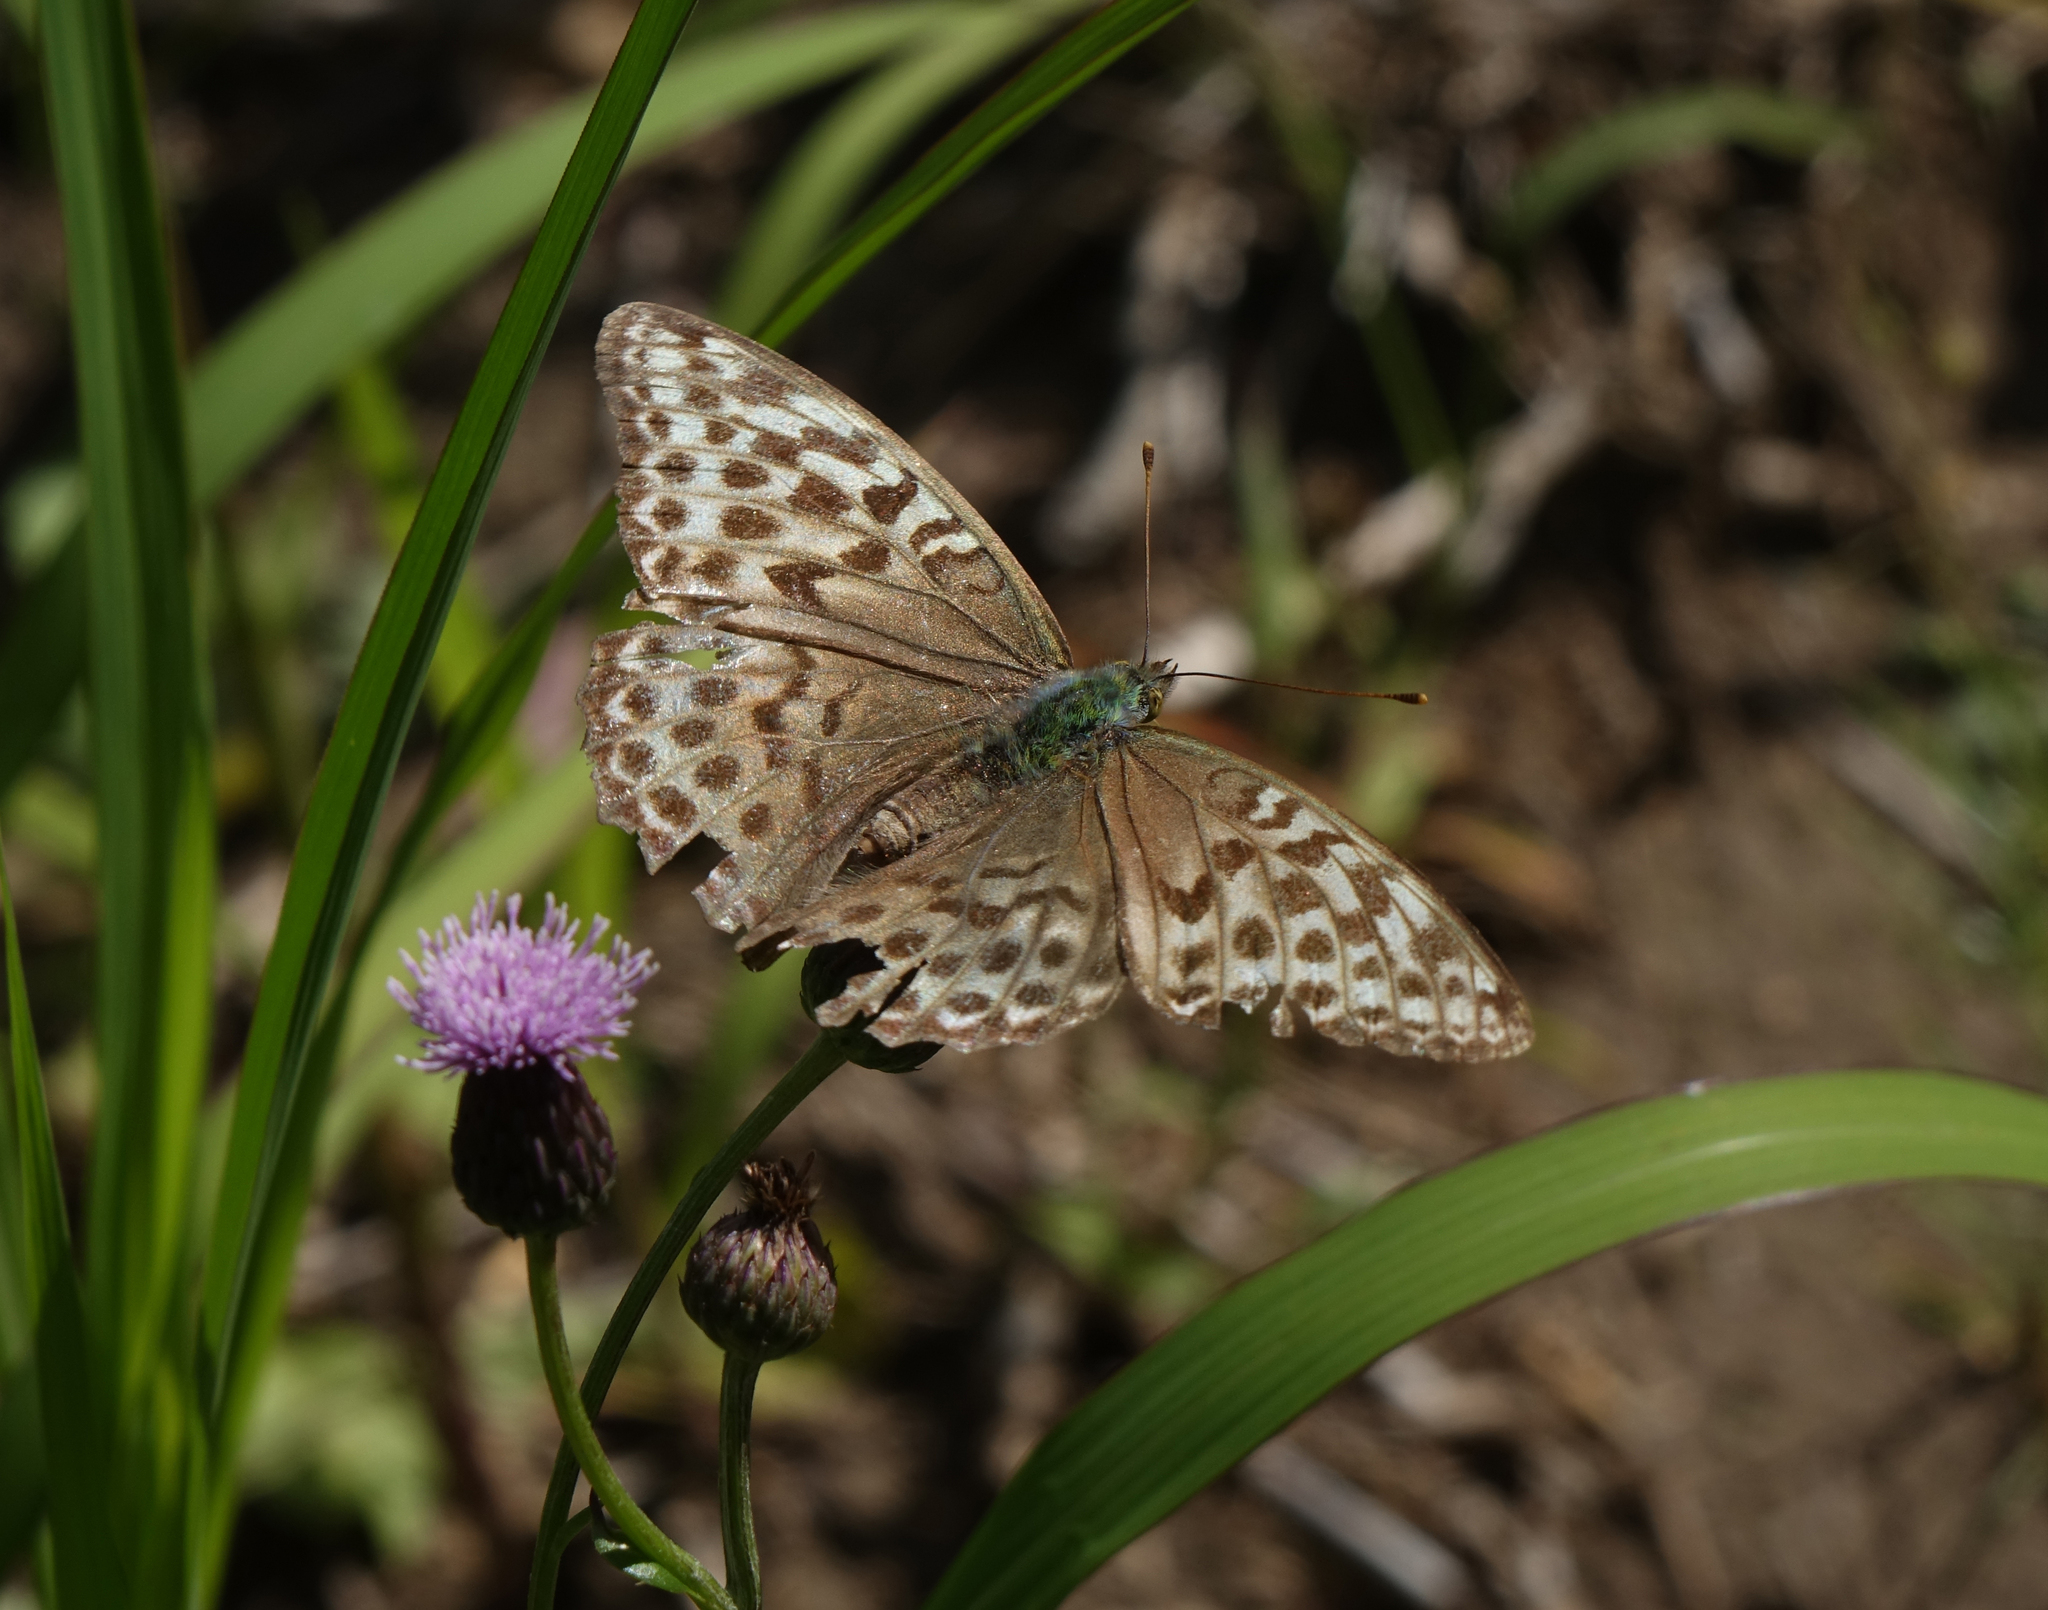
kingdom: Plantae
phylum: Tracheophyta
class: Magnoliopsida
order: Asterales
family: Asteraceae
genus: Cirsium
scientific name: Cirsium arvense
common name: Creeping thistle
